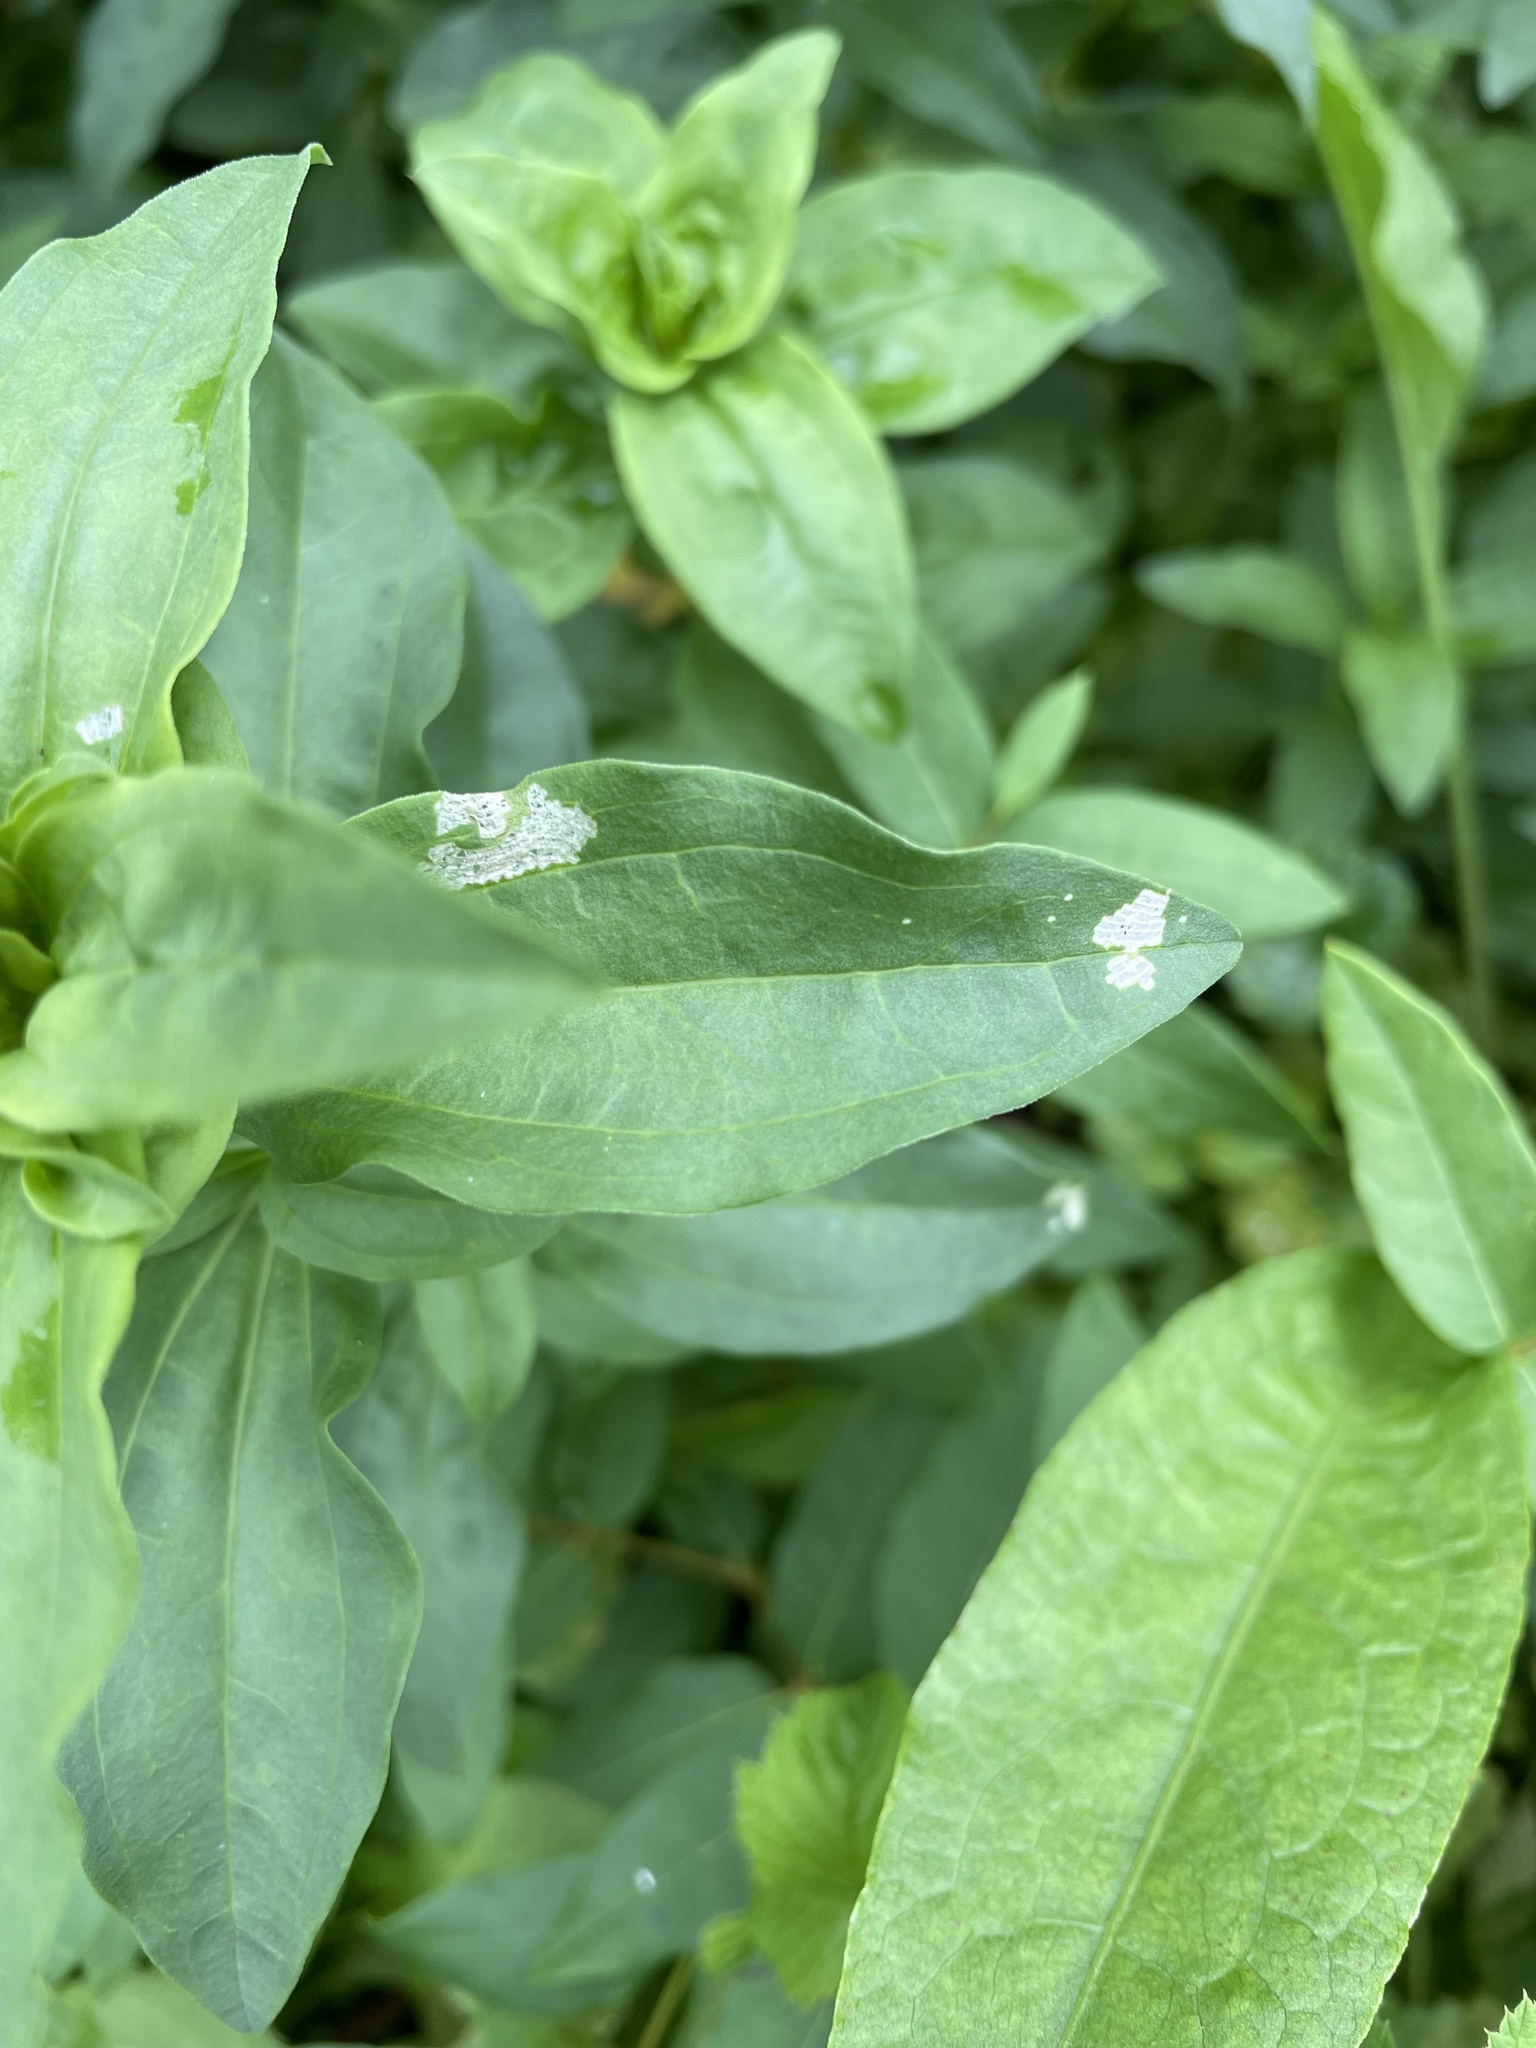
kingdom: Plantae
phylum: Tracheophyta
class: Magnoliopsida
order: Caryophyllales
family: Caryophyllaceae
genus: Saponaria
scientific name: Saponaria officinalis
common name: Soapwort
